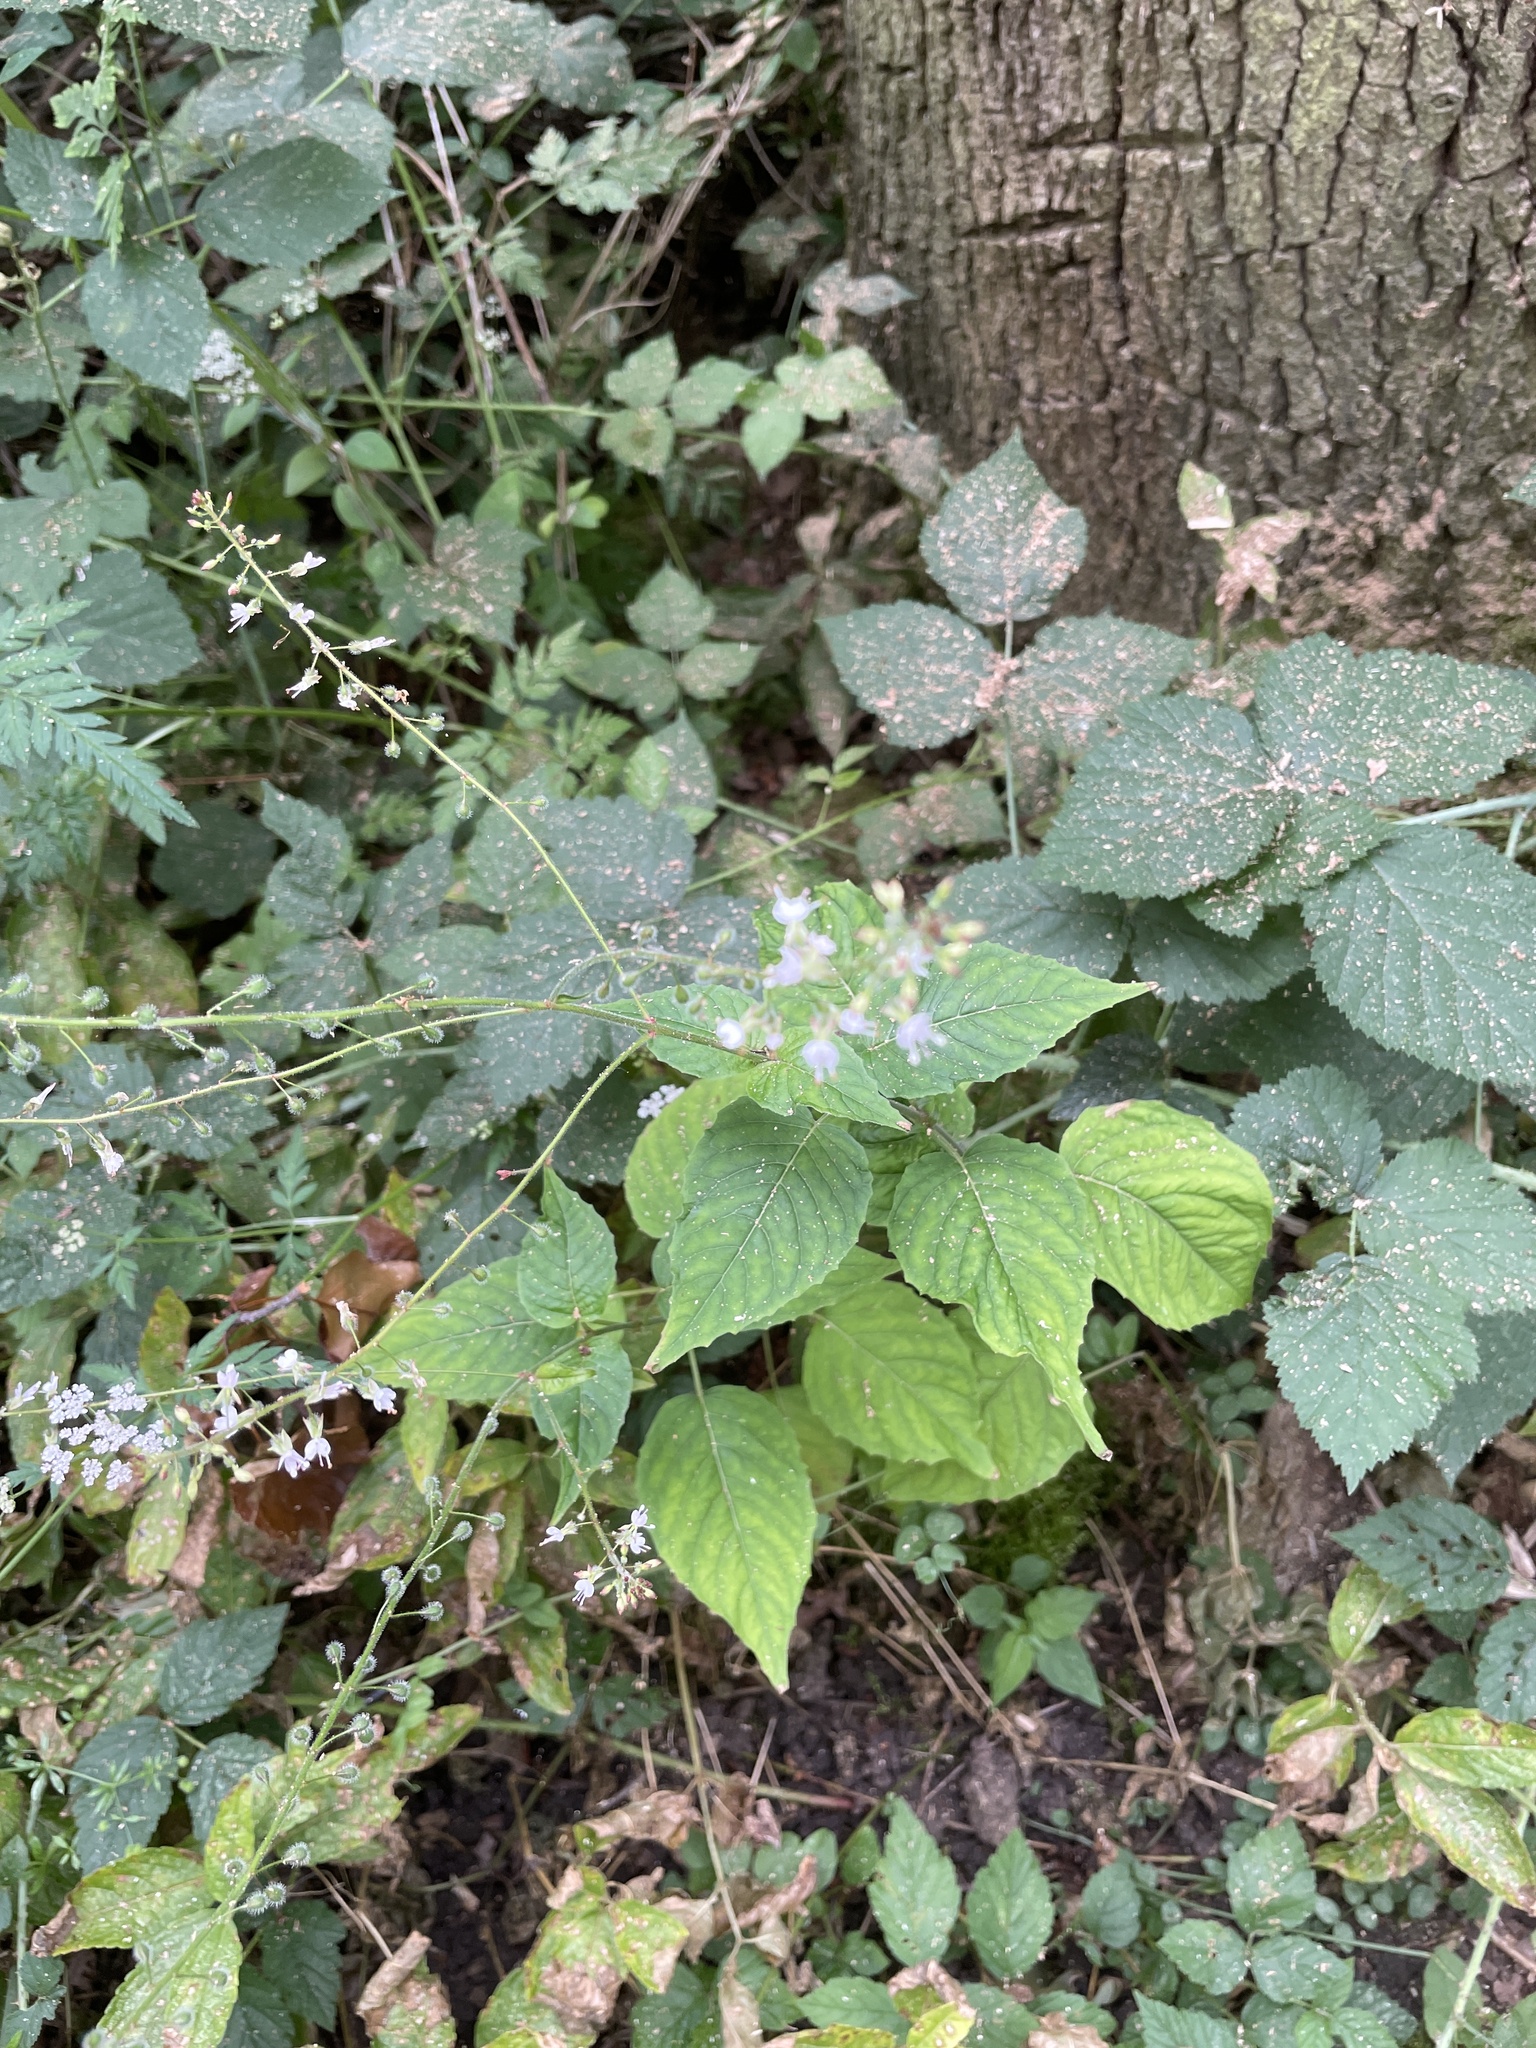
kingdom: Plantae
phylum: Tracheophyta
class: Magnoliopsida
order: Myrtales
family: Onagraceae
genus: Circaea
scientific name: Circaea lutetiana
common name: Enchanter's-nightshade
